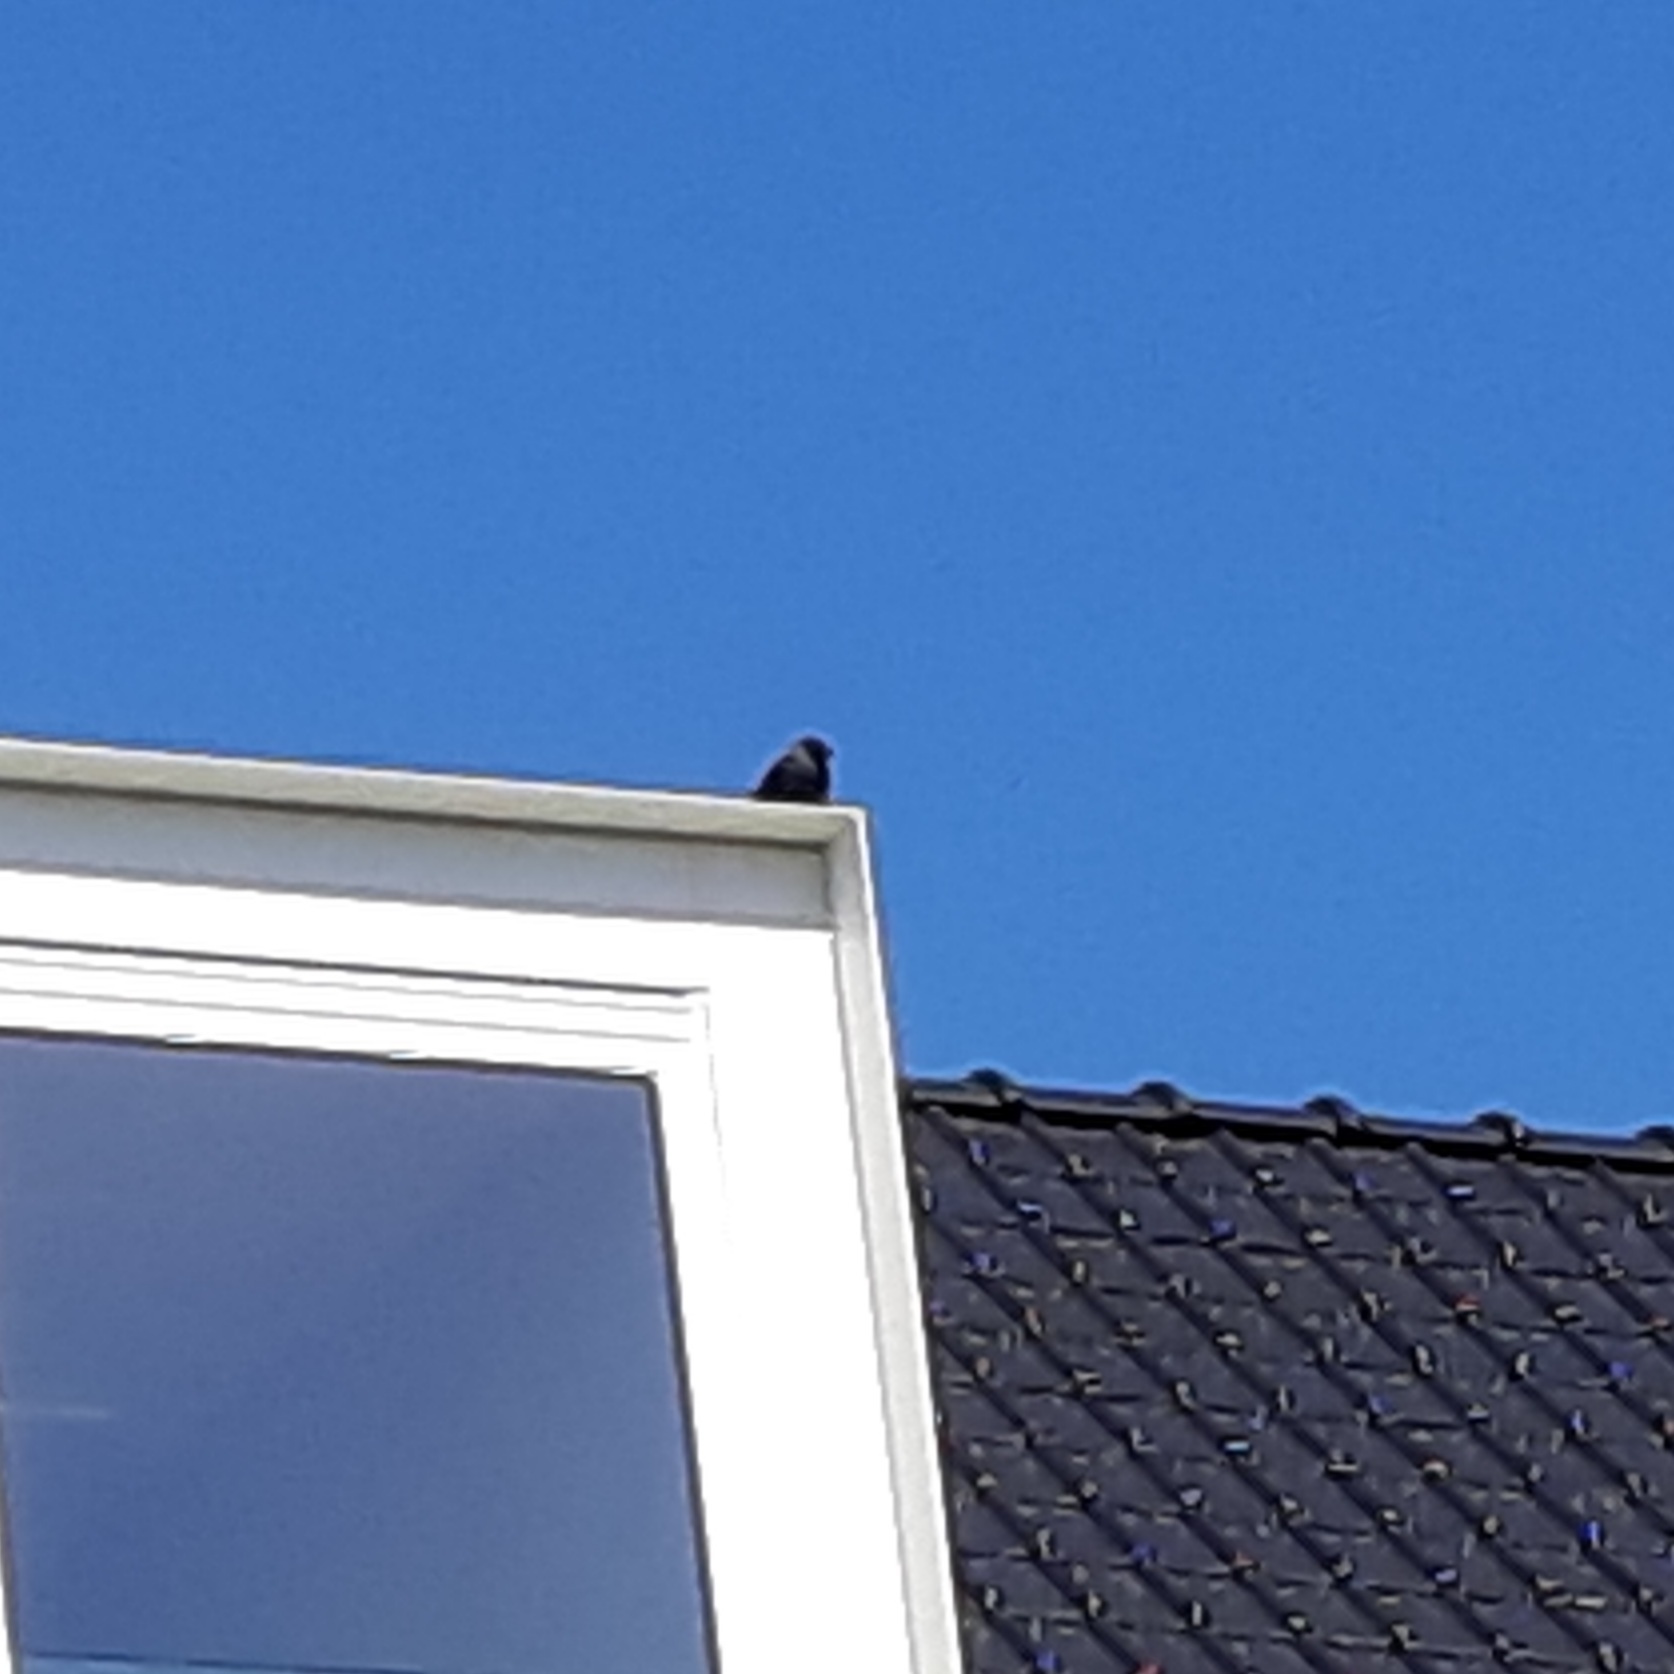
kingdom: Animalia
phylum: Chordata
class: Aves
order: Passeriformes
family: Corvidae
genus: Coloeus
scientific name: Coloeus monedula
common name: Western jackdaw
